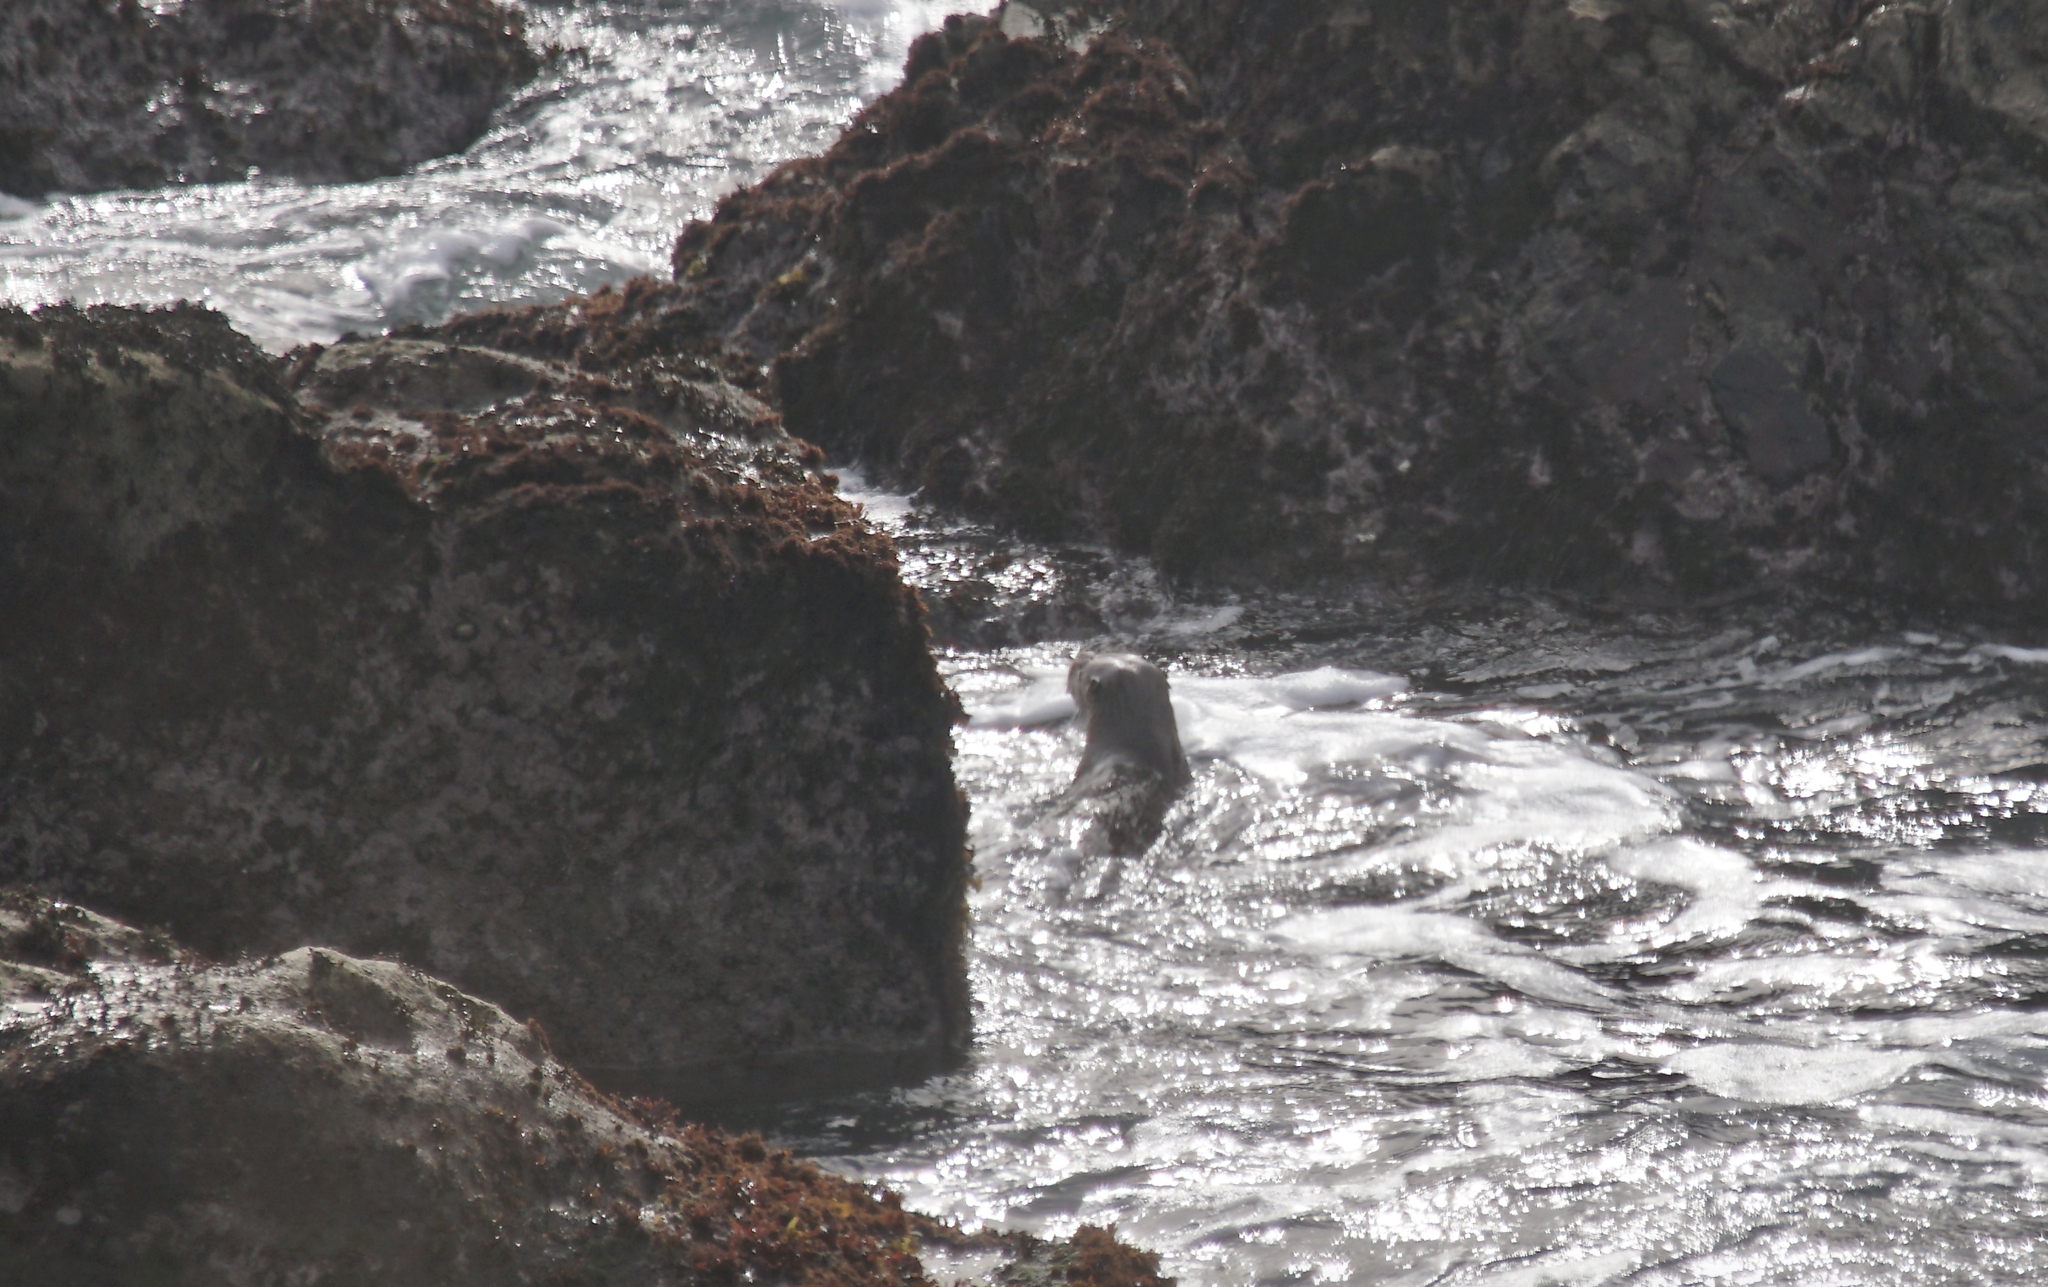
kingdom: Animalia
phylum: Chordata
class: Mammalia
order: Carnivora
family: Mustelidae
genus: Lontra
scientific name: Lontra canadensis
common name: North american river otter
